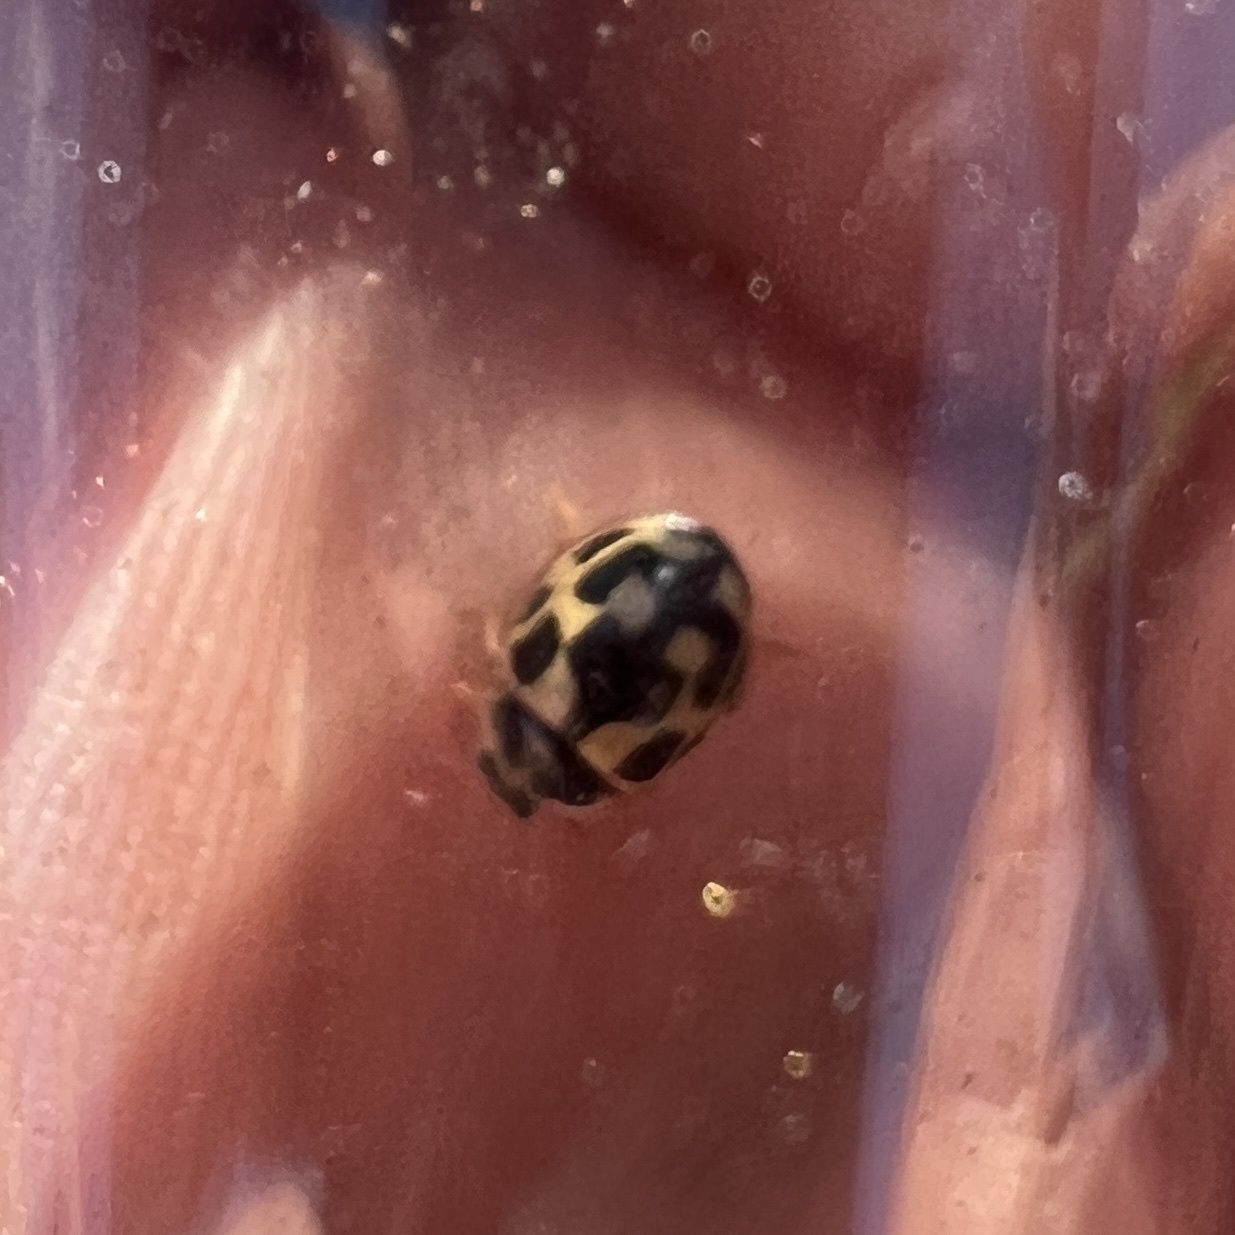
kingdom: Animalia
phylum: Arthropoda
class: Insecta
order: Coleoptera
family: Coccinellidae
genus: Propylaea
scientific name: Propylaea quatuordecimpunctata
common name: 14-spotted ladybird beetle
